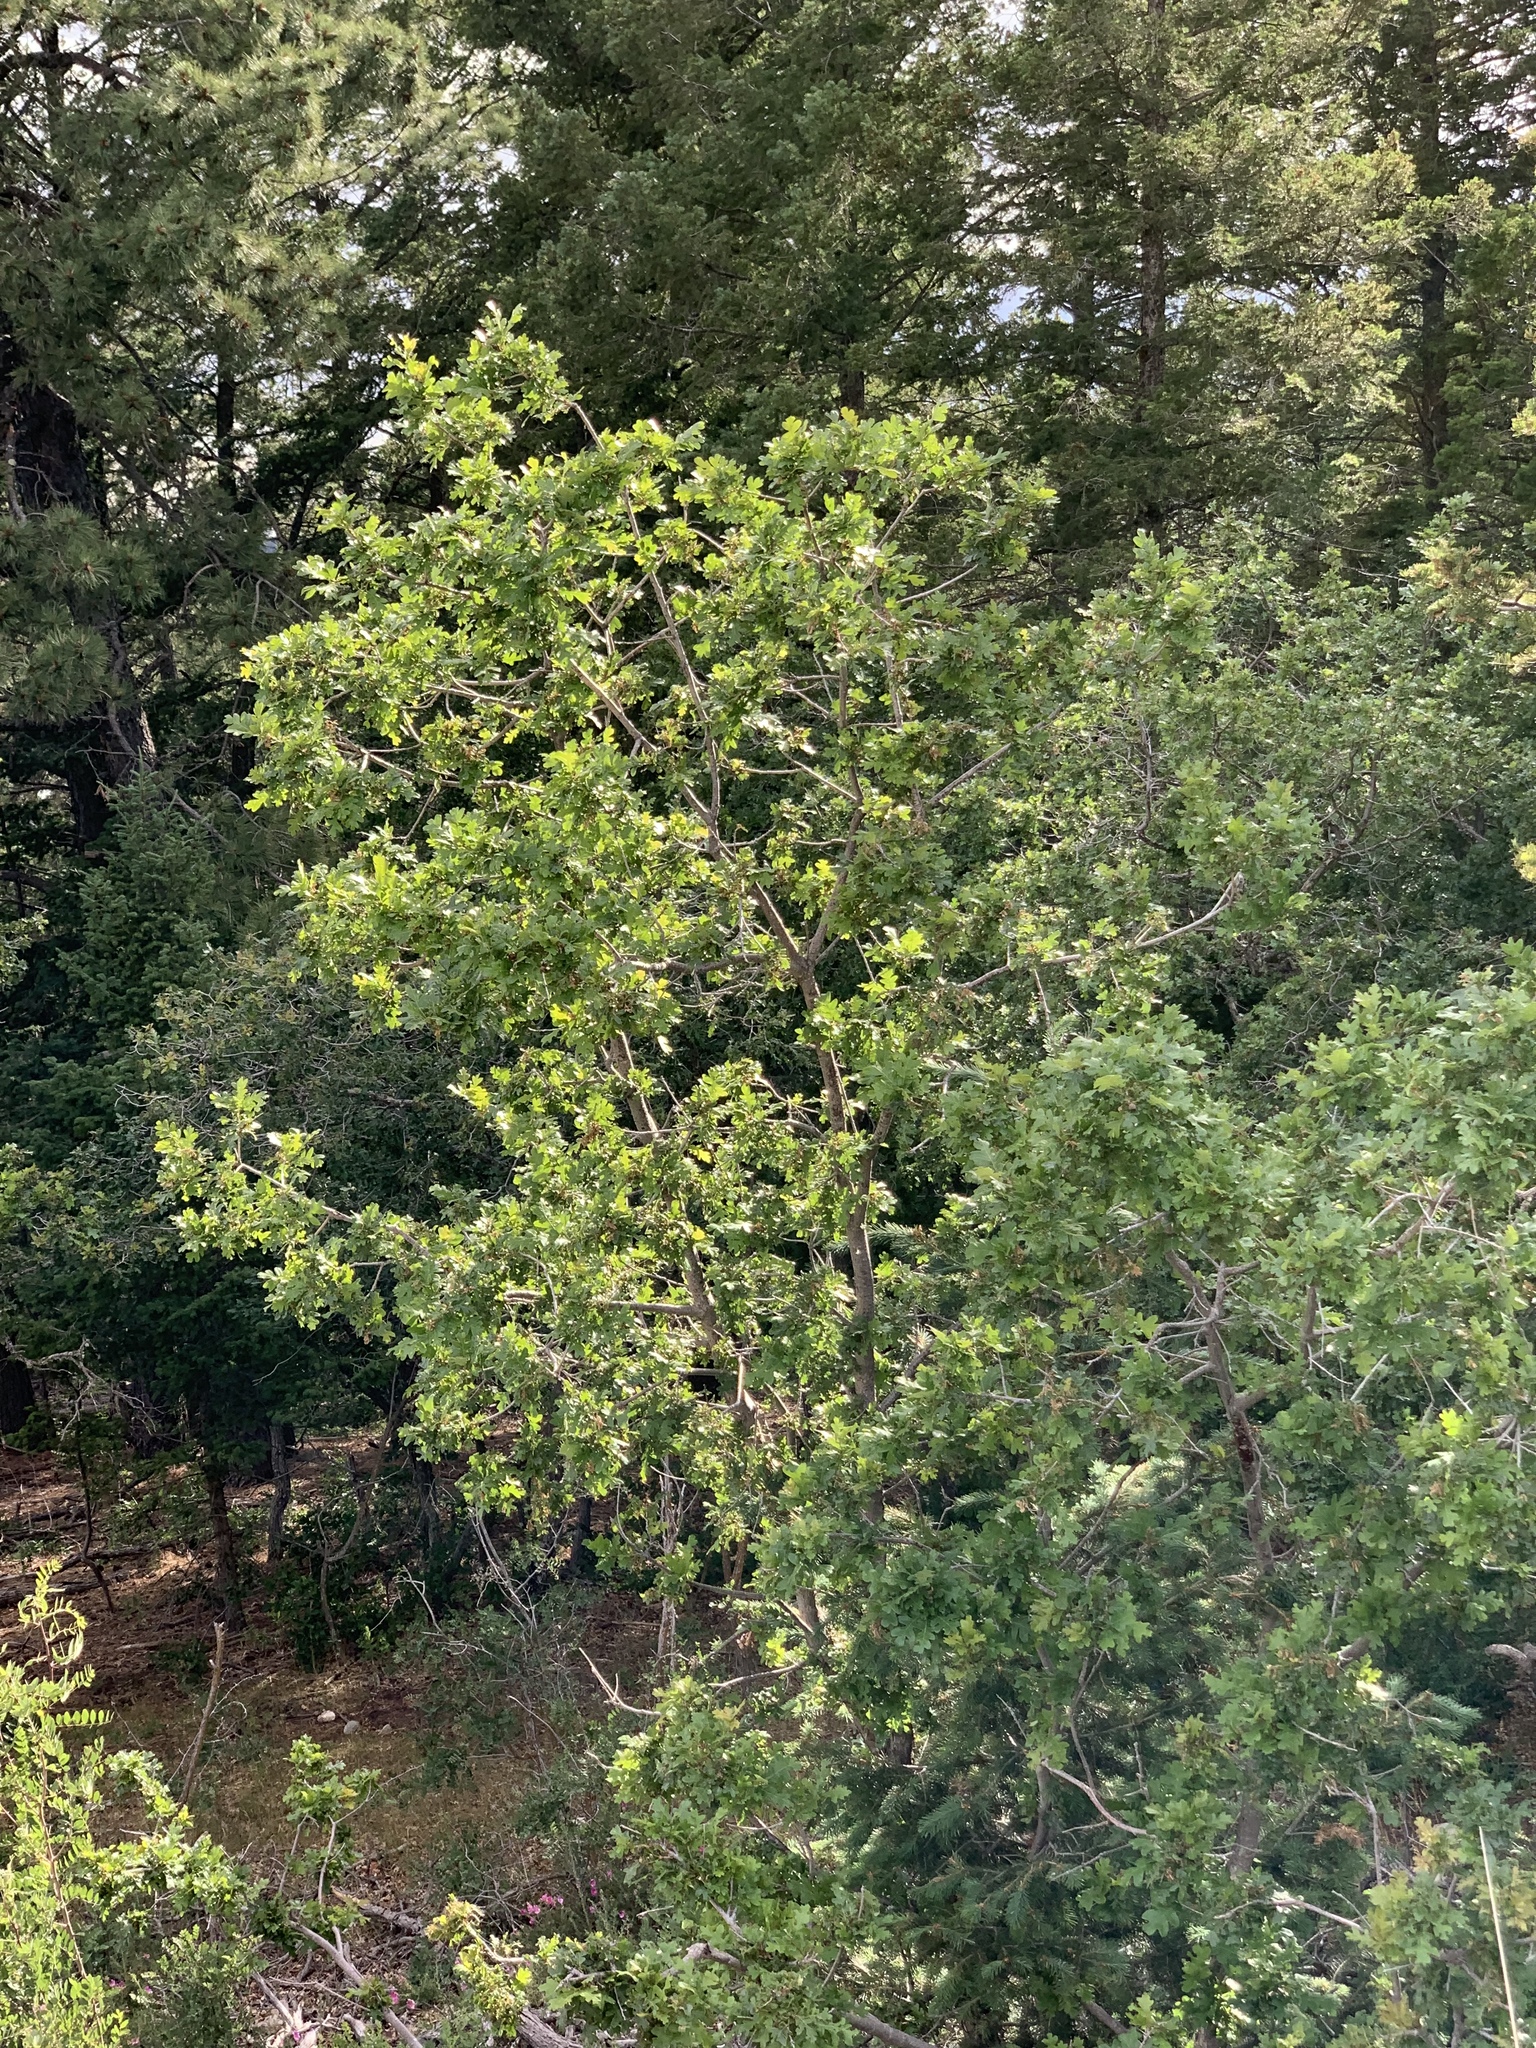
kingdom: Plantae
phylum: Tracheophyta
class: Magnoliopsida
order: Fagales
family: Fagaceae
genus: Quercus
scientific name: Quercus gambelii
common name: Gambel oak
